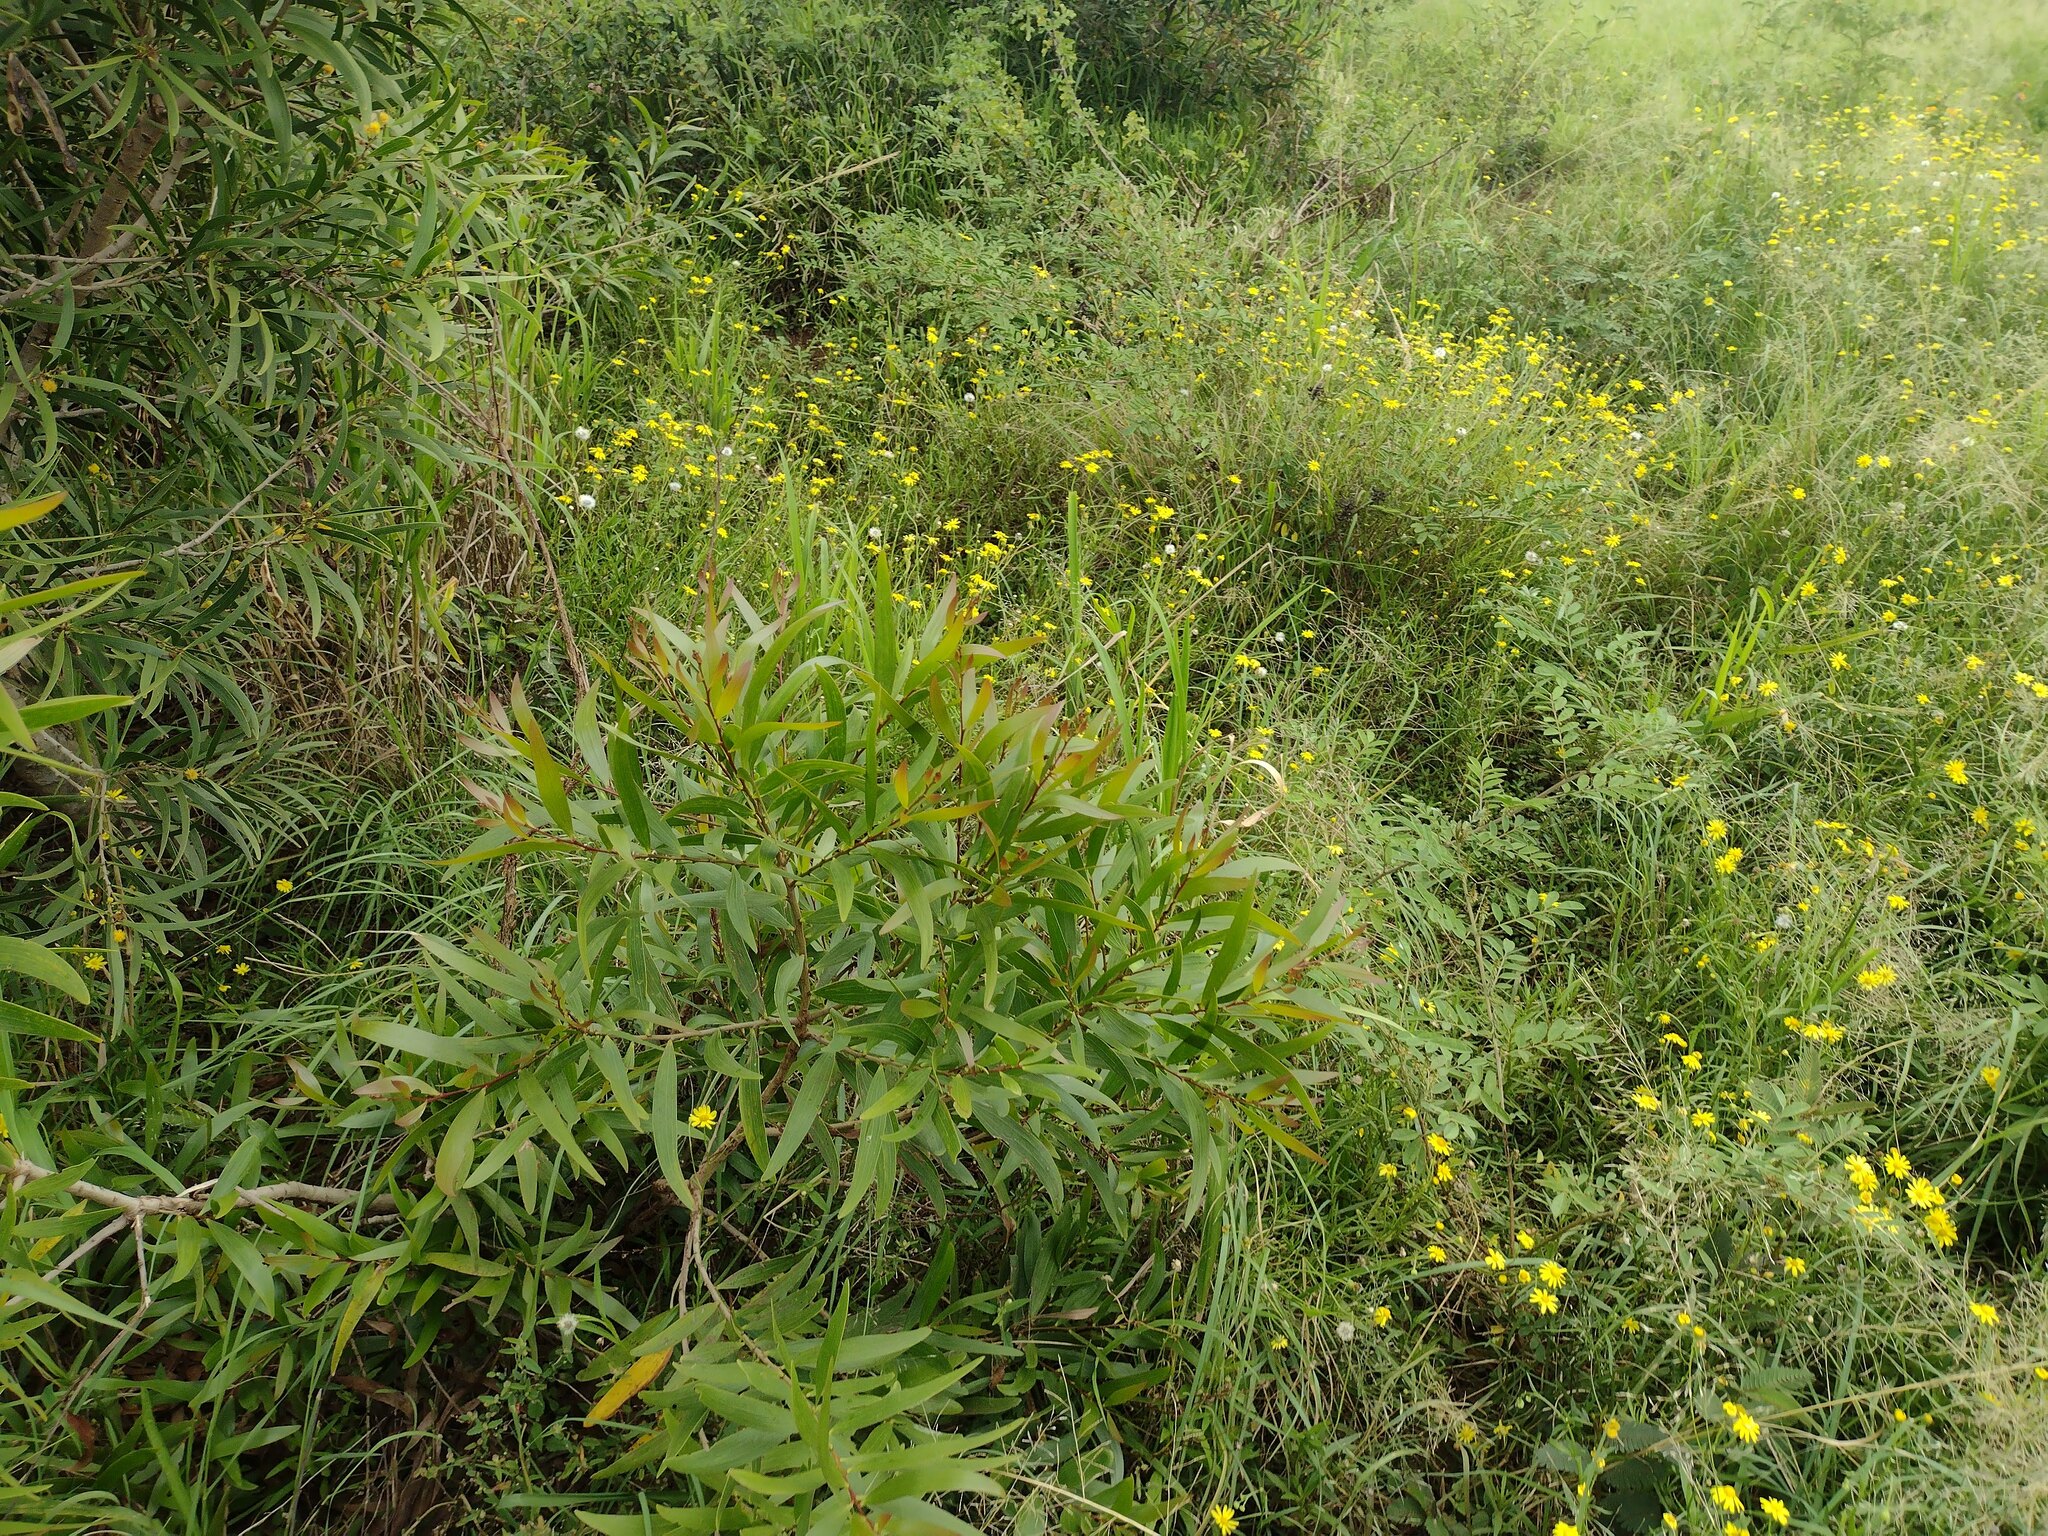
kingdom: Plantae
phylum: Tracheophyta
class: Magnoliopsida
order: Fabales
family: Fabaceae
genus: Acacia
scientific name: Acacia confusa
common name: Formosan koa
